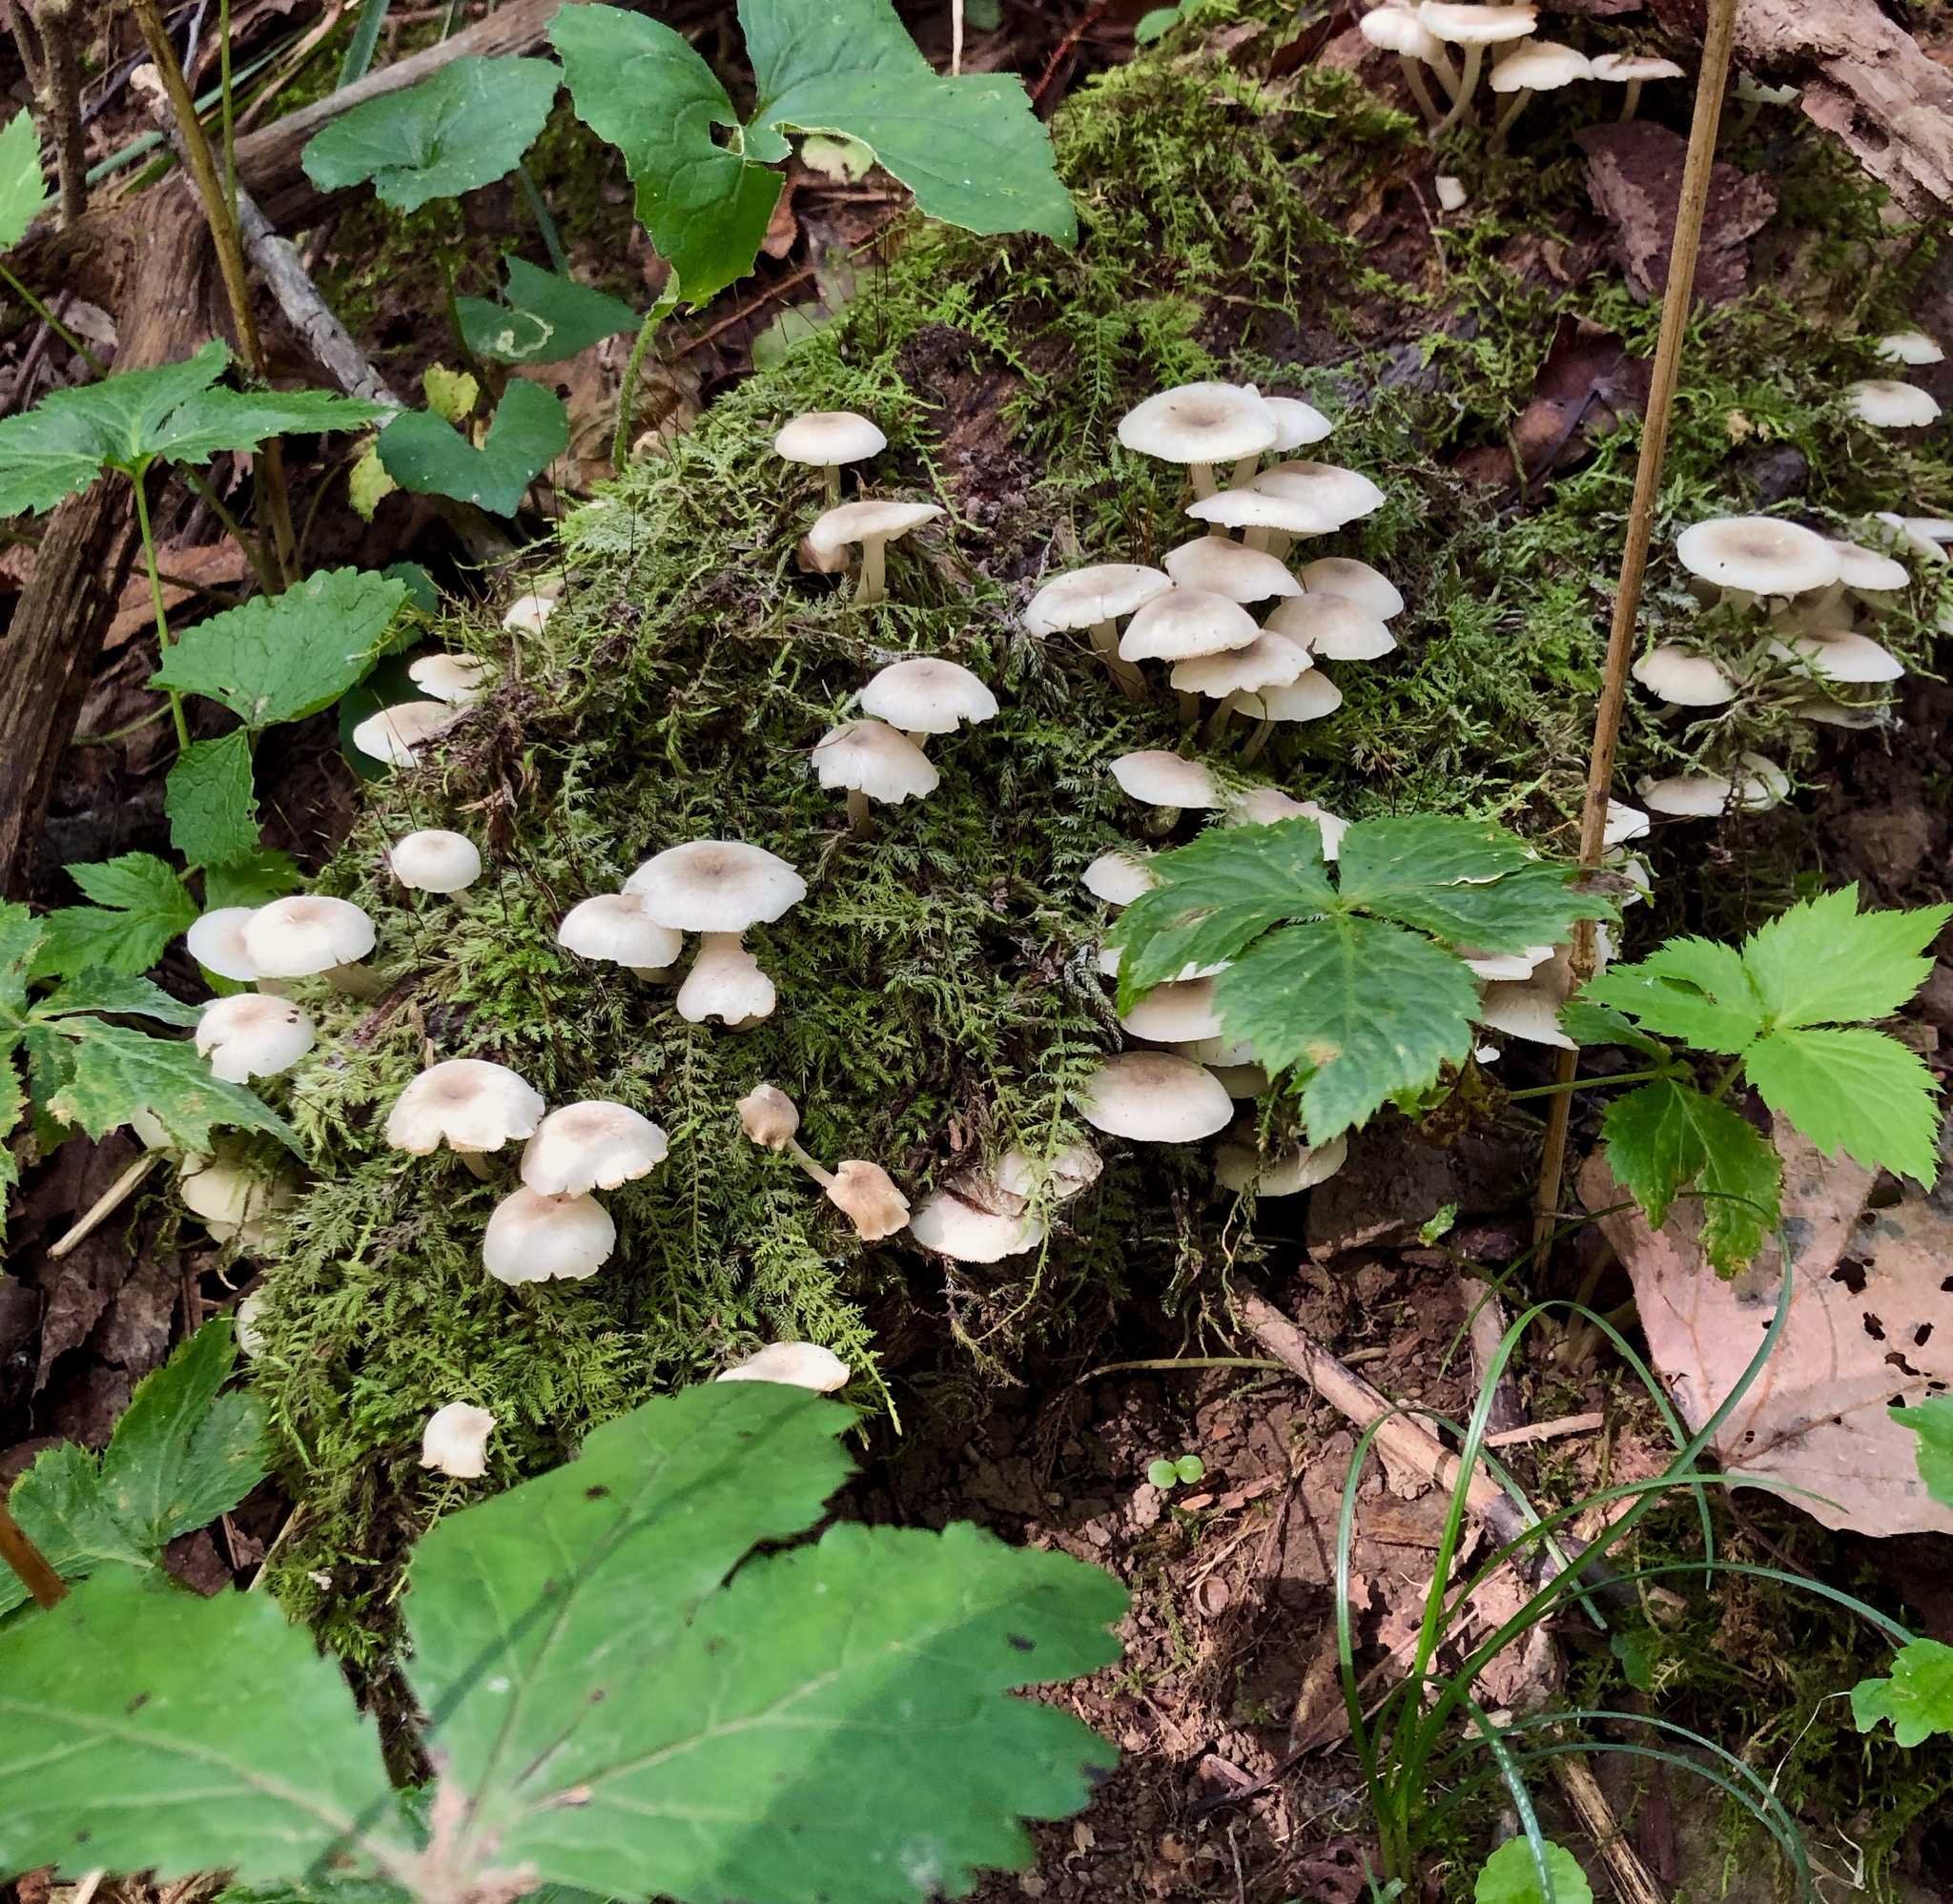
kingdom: Fungi
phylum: Basidiomycota
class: Agaricomycetes
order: Agaricales
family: Marasmiaceae
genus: Clitocybula
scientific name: Clitocybula oculus
